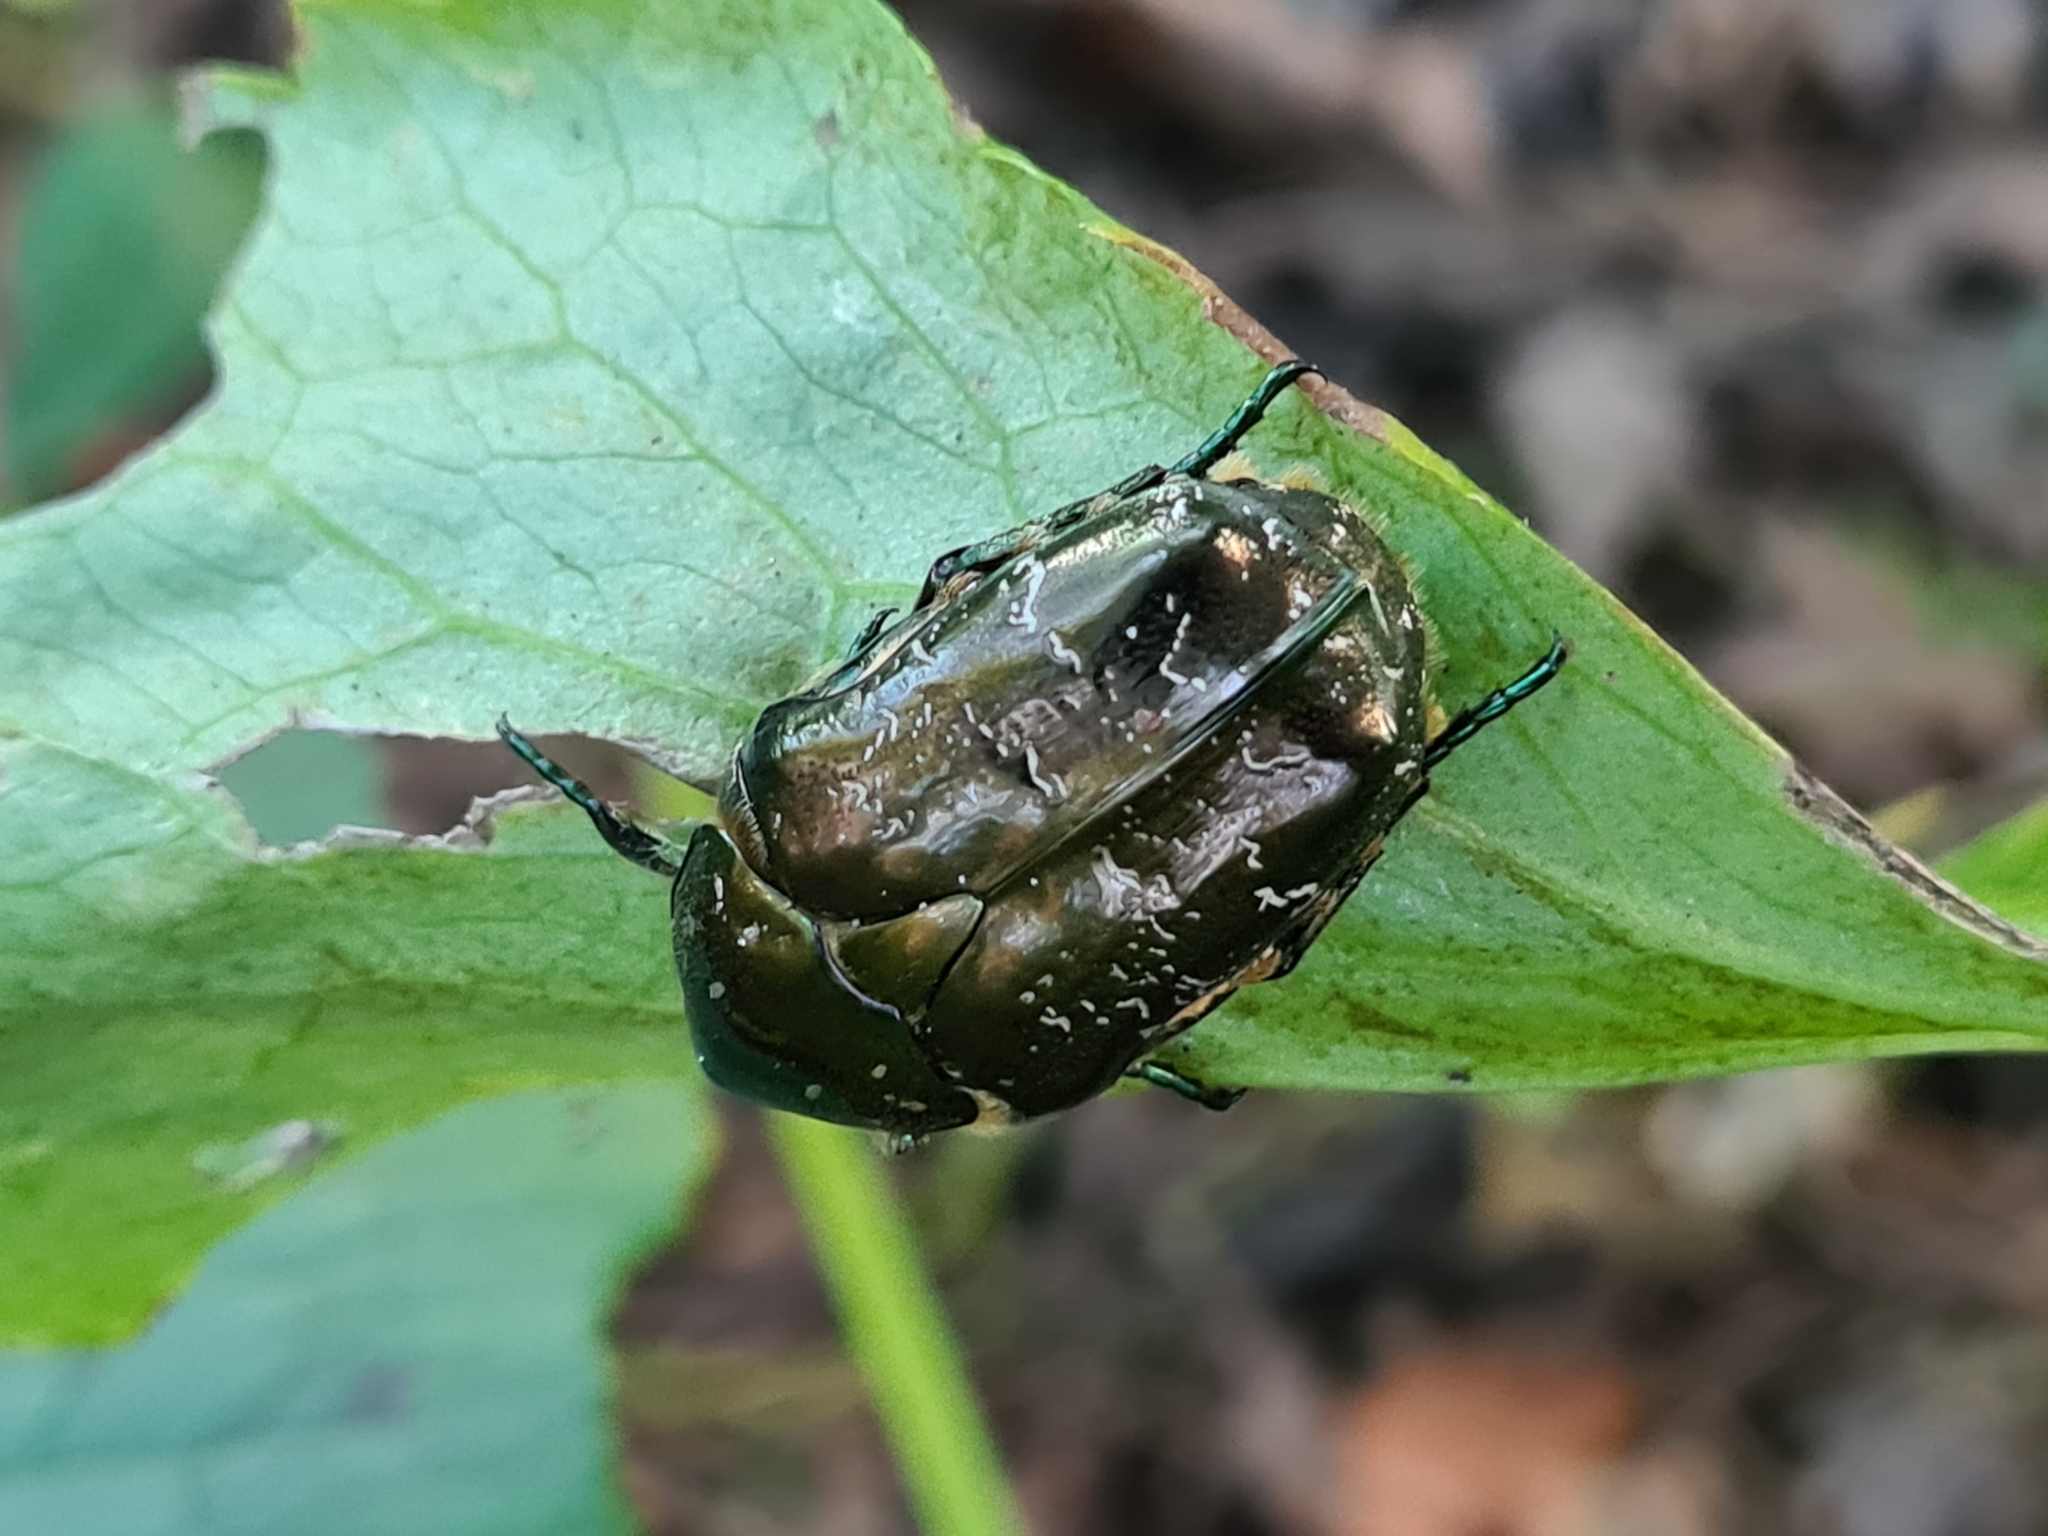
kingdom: Animalia
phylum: Arthropoda
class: Insecta
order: Coleoptera
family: Scarabaeidae
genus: Protaetia
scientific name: Protaetia marmorata
